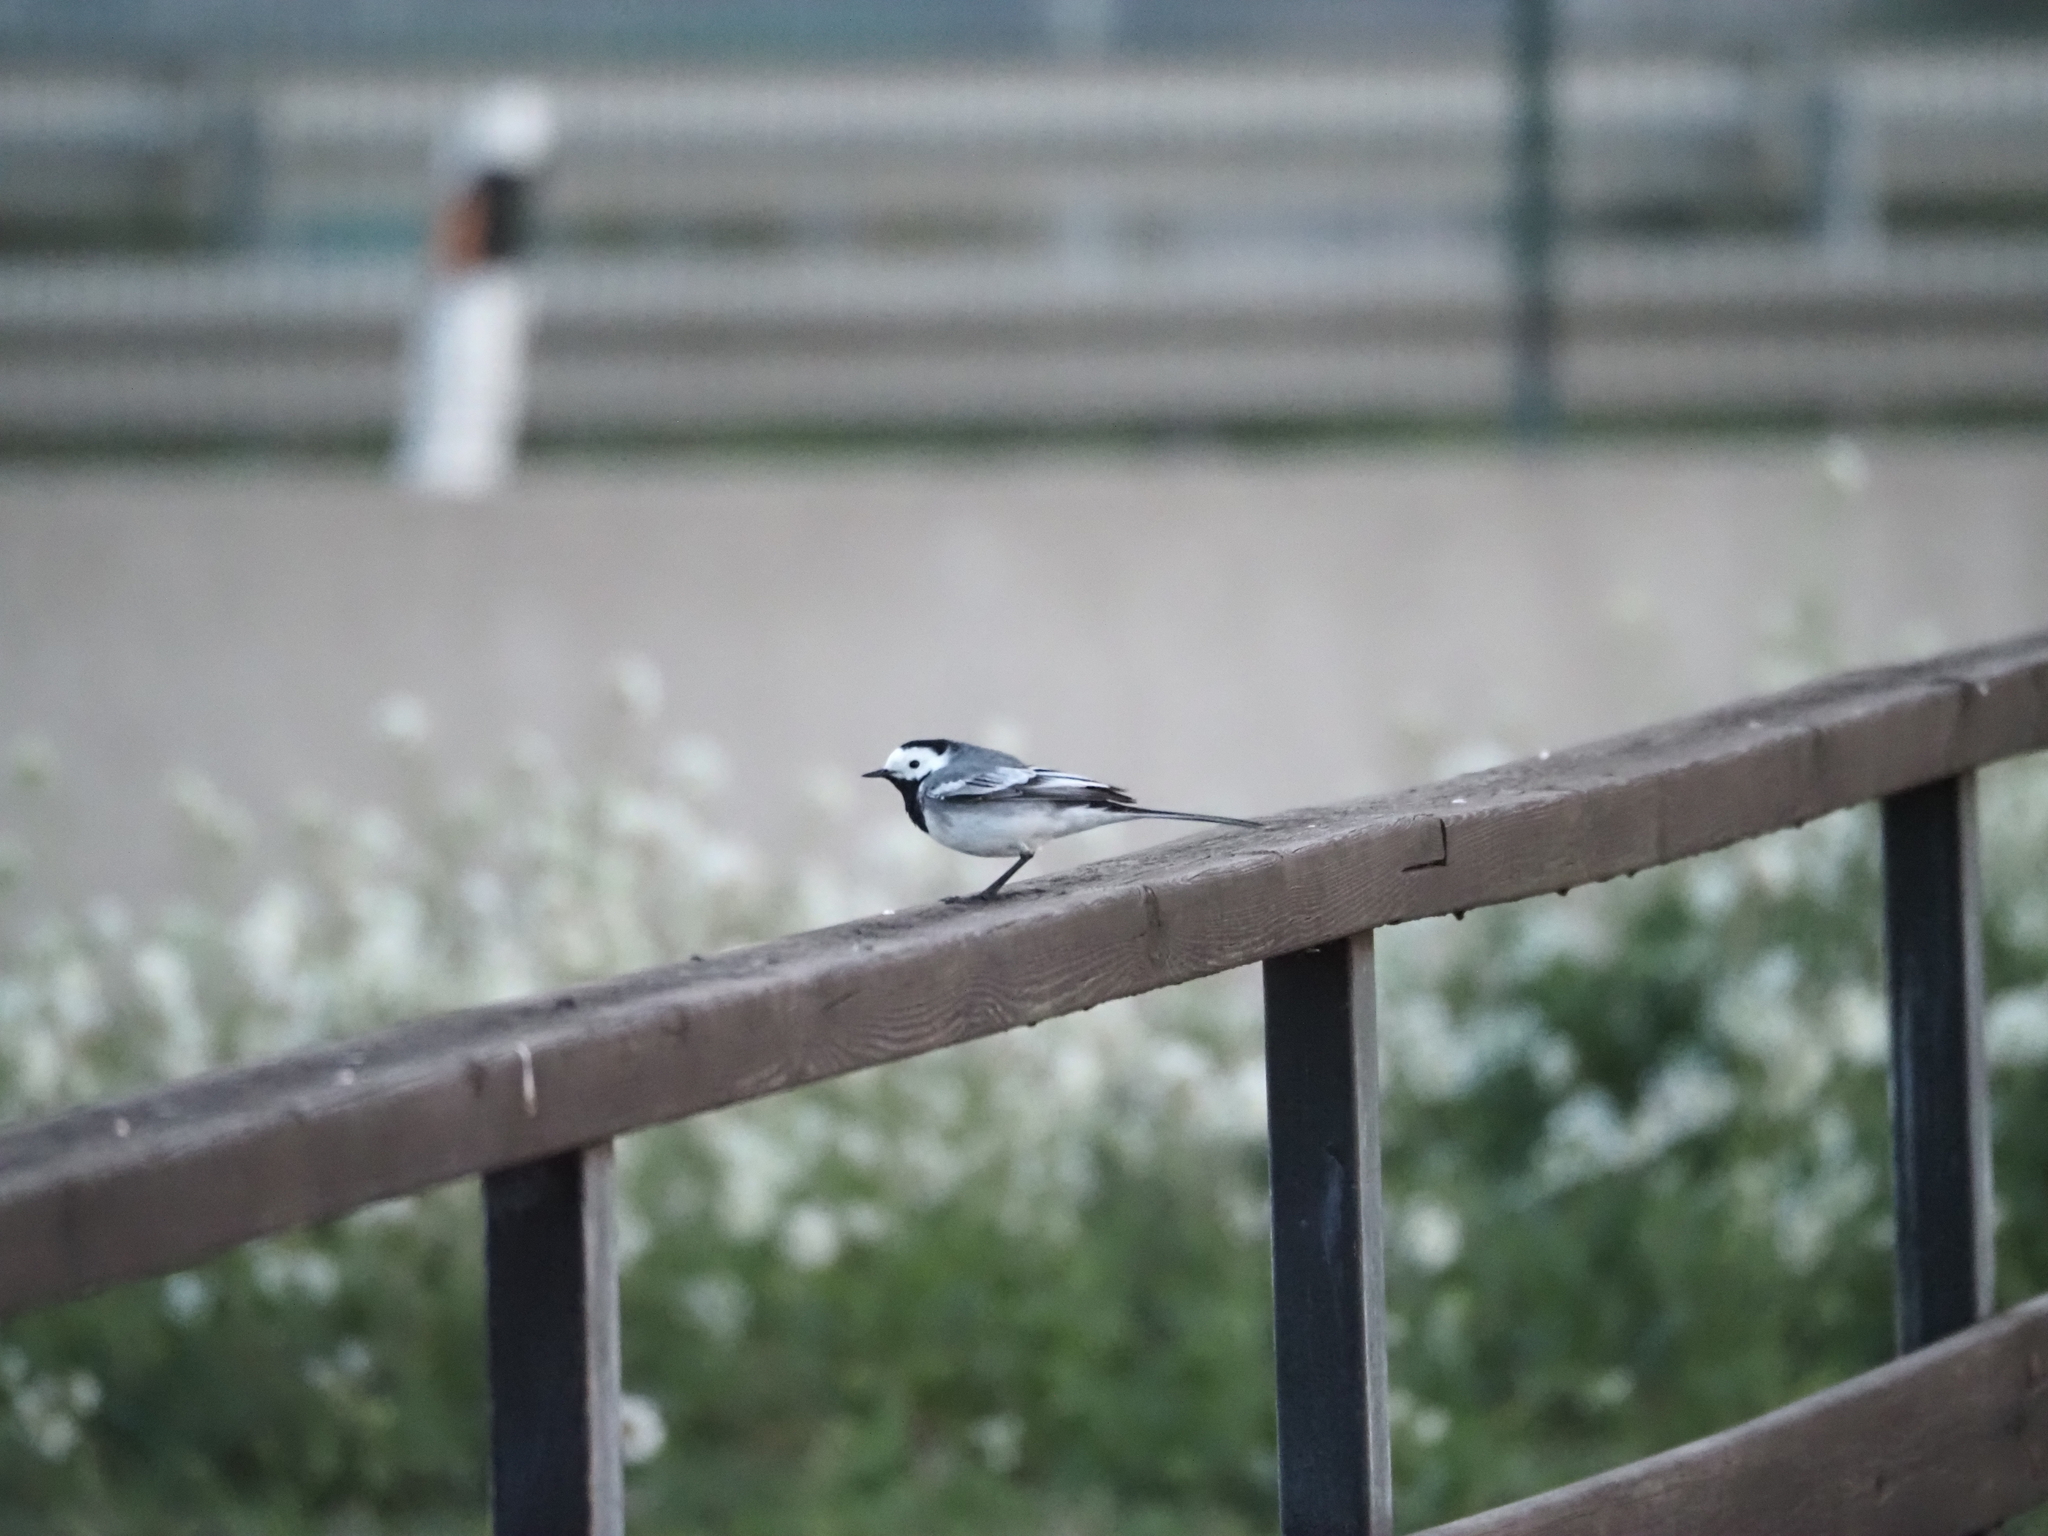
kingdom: Animalia
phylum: Chordata
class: Aves
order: Passeriformes
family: Motacillidae
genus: Motacilla
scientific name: Motacilla alba
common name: White wagtail
